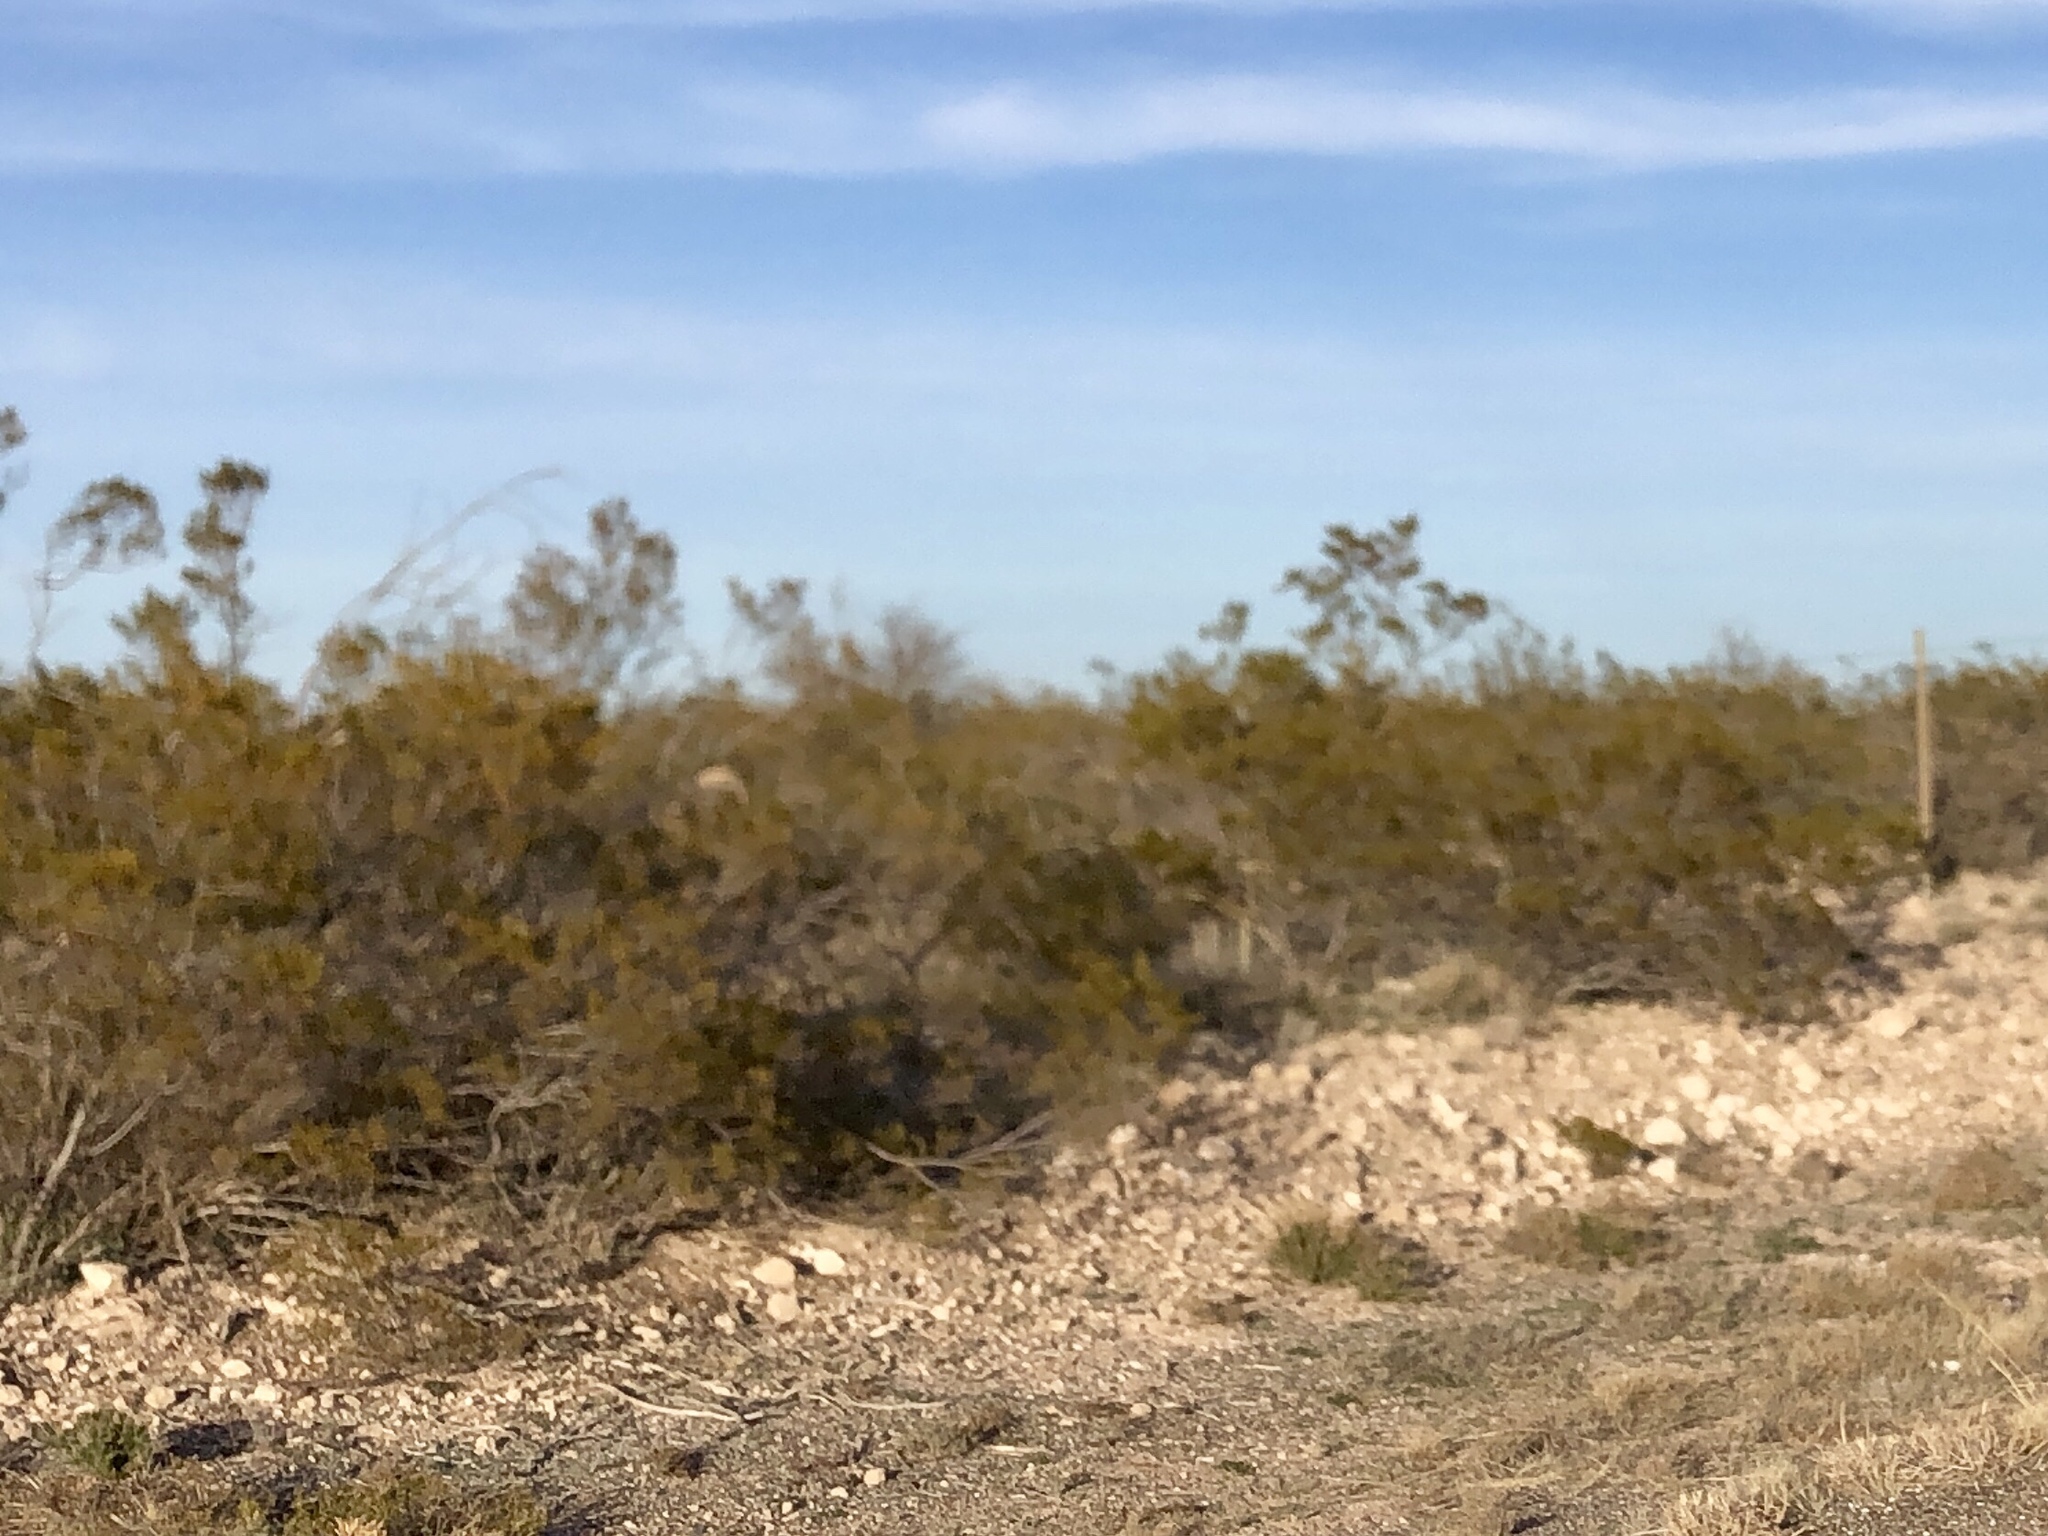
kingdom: Plantae
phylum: Tracheophyta
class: Magnoliopsida
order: Zygophyllales
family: Zygophyllaceae
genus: Larrea
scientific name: Larrea tridentata
